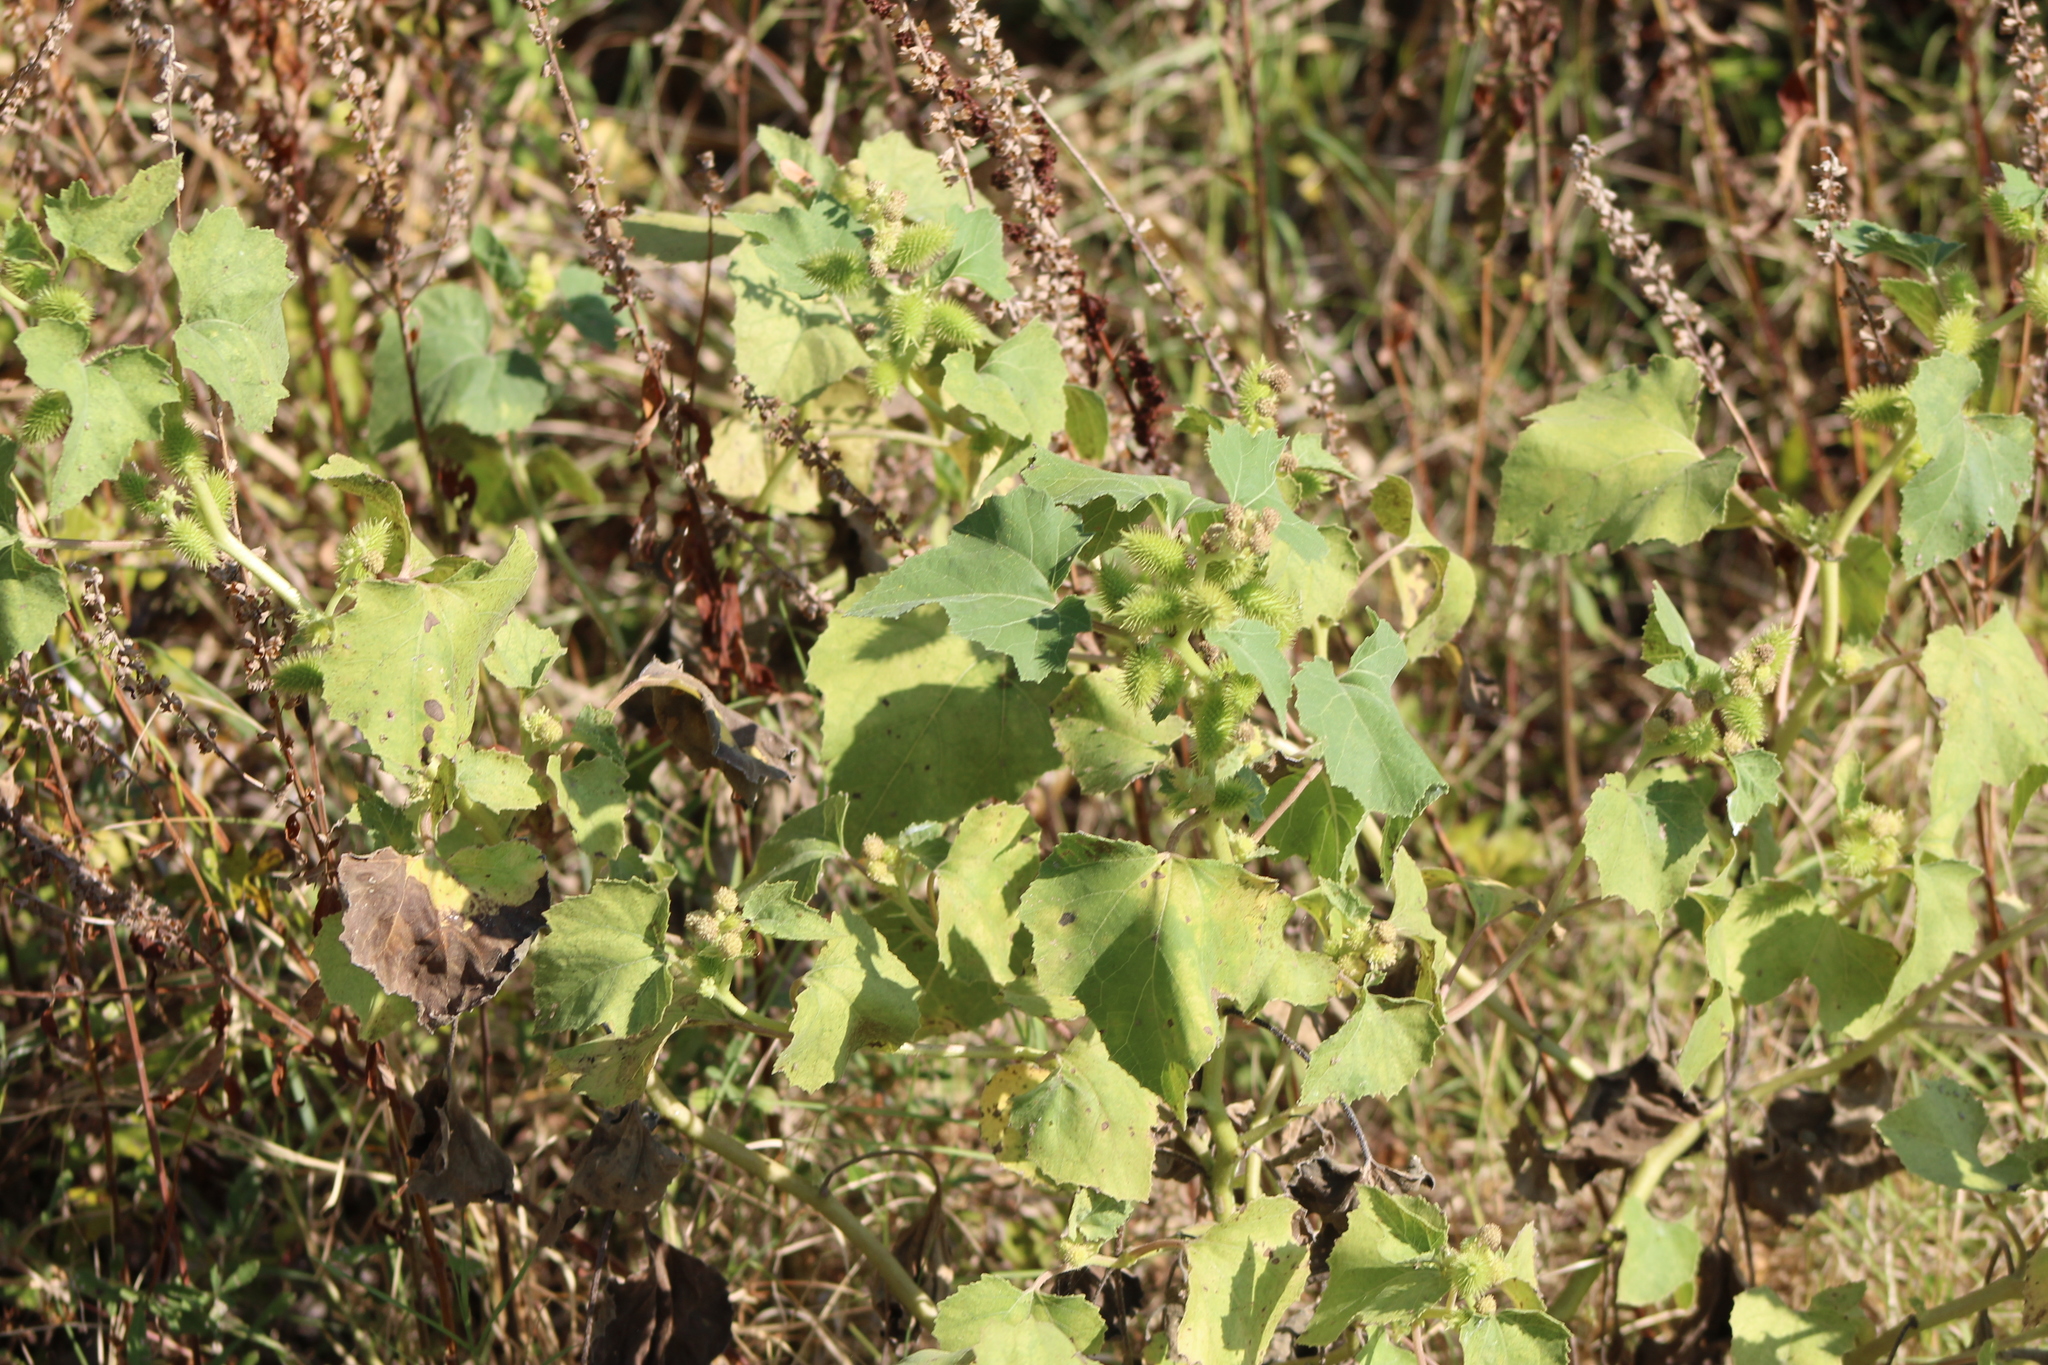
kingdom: Plantae
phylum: Tracheophyta
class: Magnoliopsida
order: Asterales
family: Asteraceae
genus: Xanthium
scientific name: Xanthium strumarium
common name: Rough cocklebur
